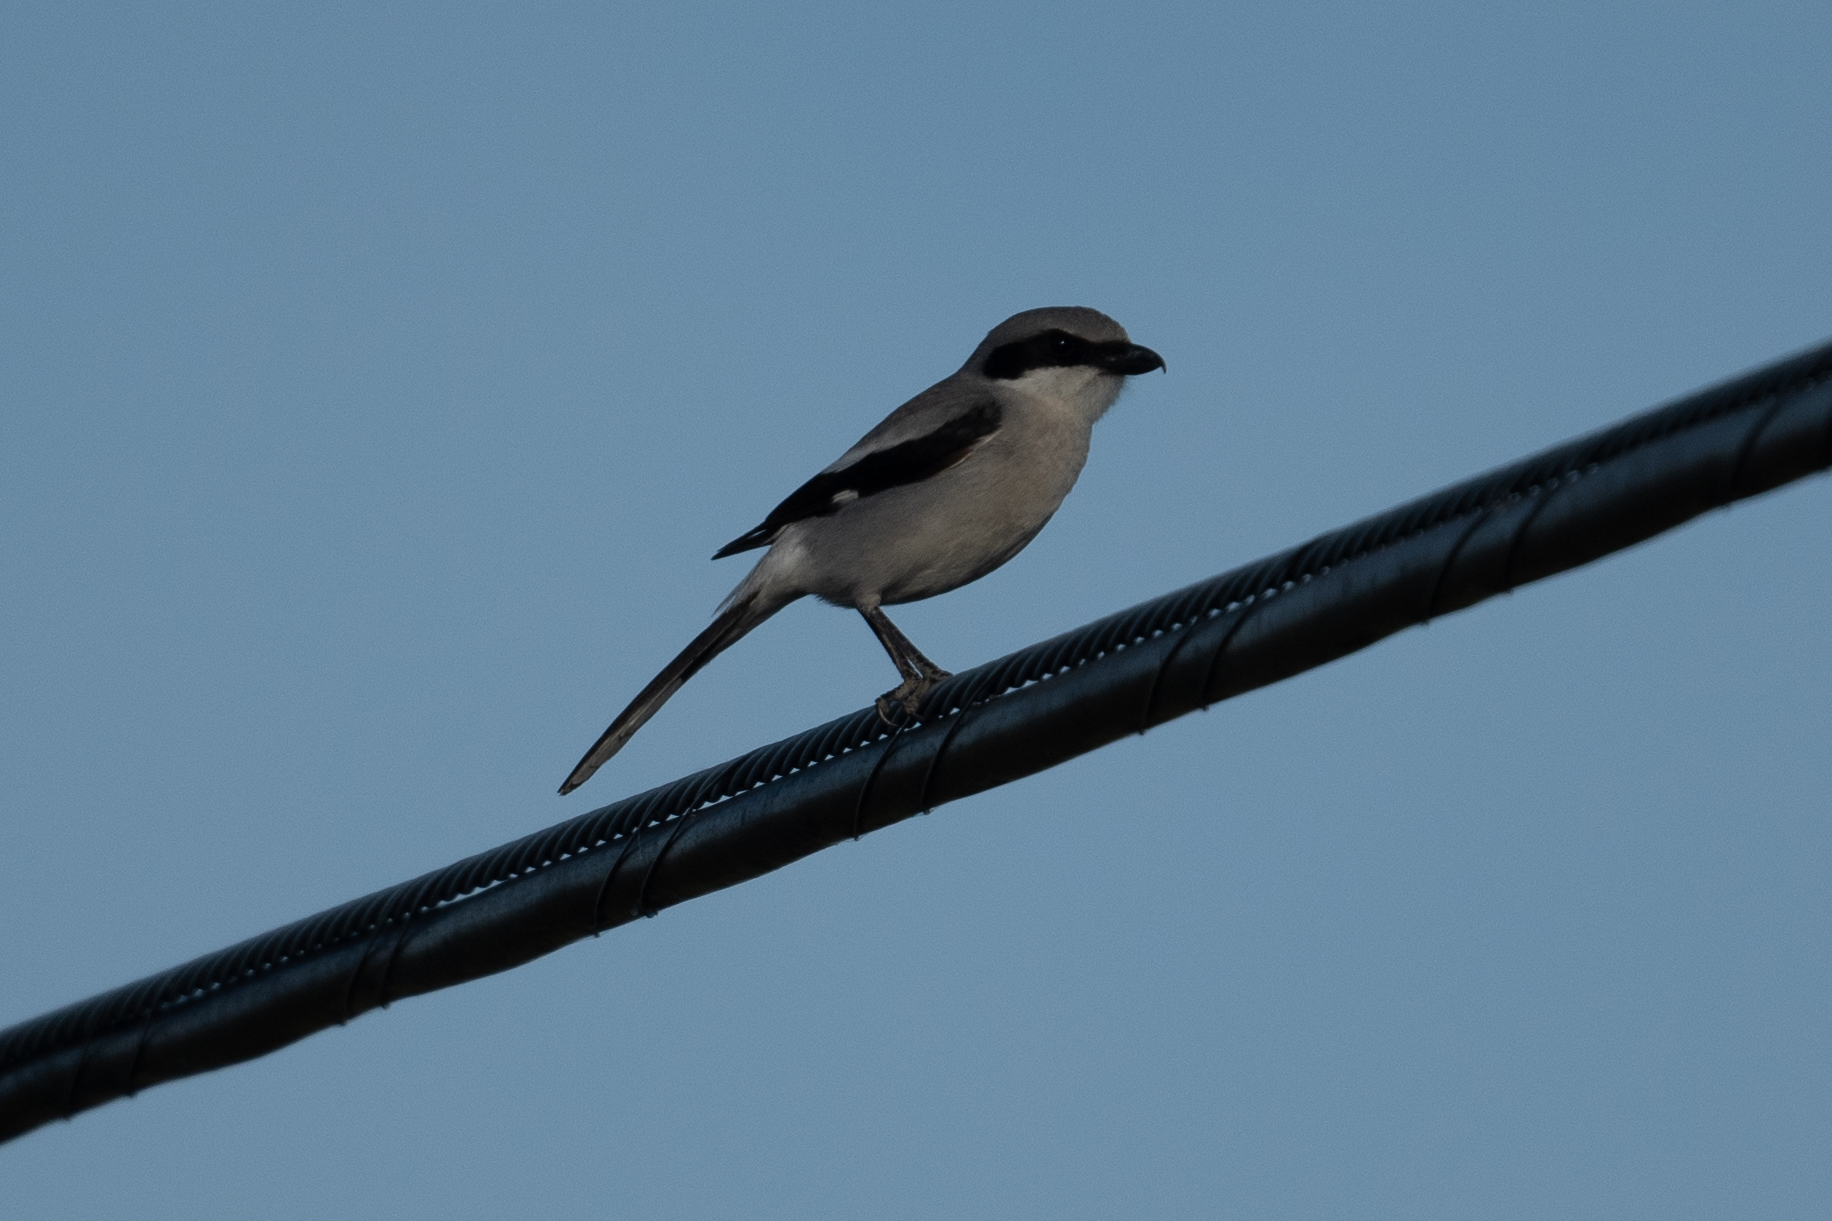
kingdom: Animalia
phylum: Chordata
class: Aves
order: Passeriformes
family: Laniidae
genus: Lanius
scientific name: Lanius ludovicianus
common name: Loggerhead shrike
